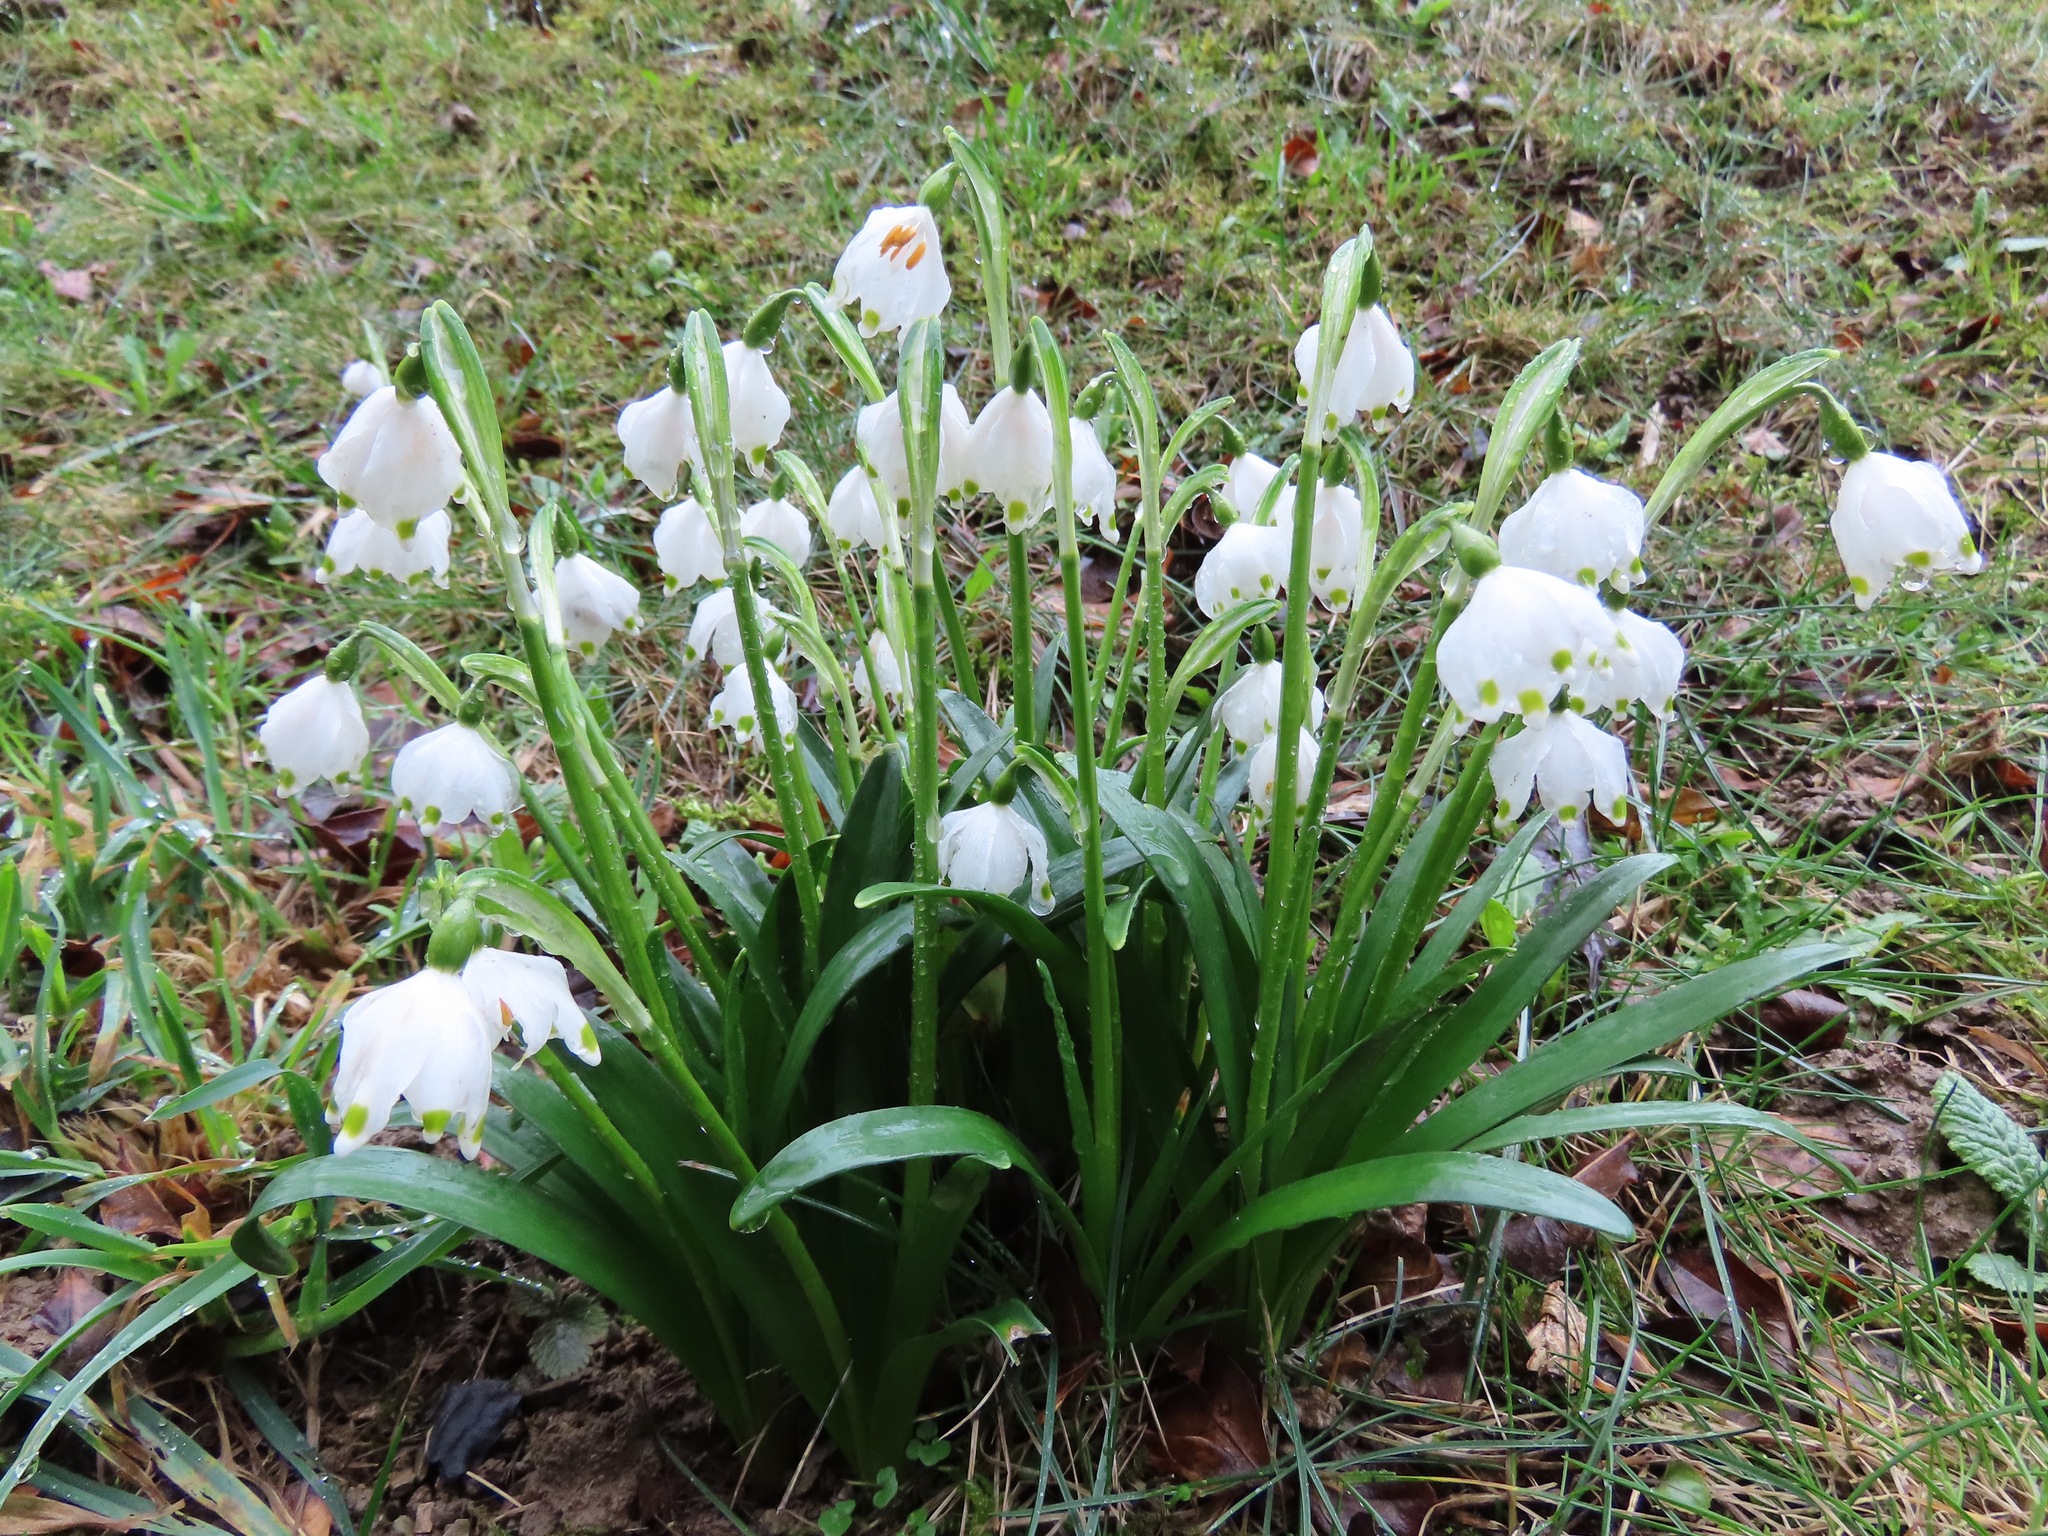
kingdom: Plantae
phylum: Tracheophyta
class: Liliopsida
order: Asparagales
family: Amaryllidaceae
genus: Leucojum
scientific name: Leucojum vernum
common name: Spring snowflake
